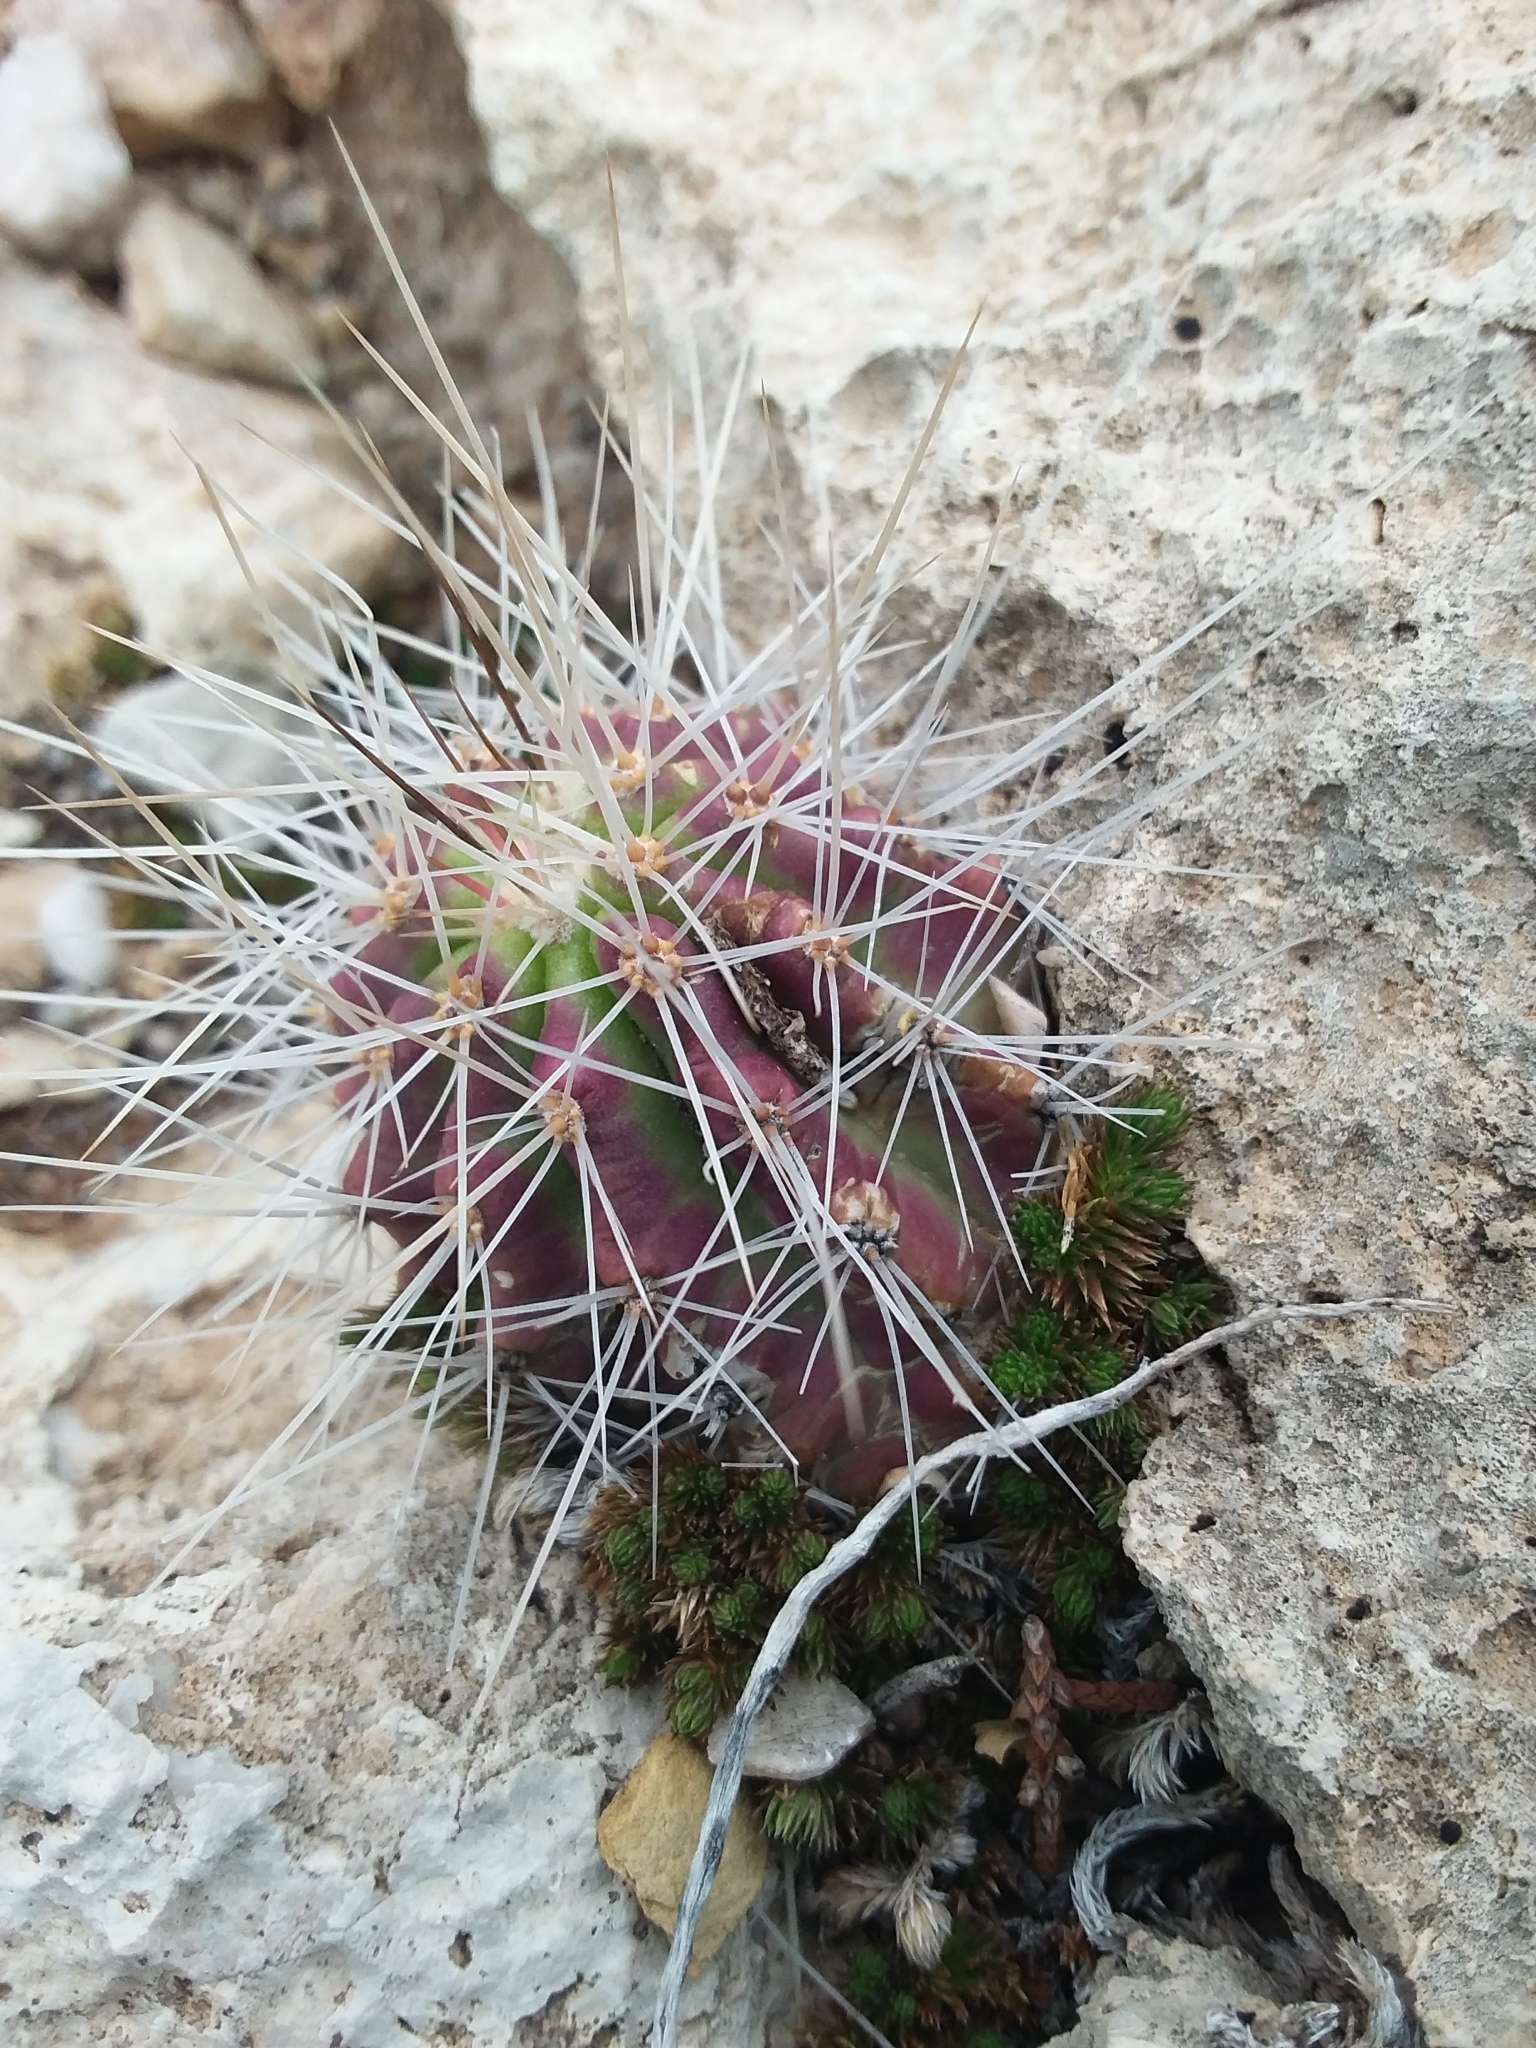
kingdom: Plantae
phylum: Tracheophyta
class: Magnoliopsida
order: Caryophyllales
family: Cactaceae
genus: Echinocereus
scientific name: Echinocereus stramineus
